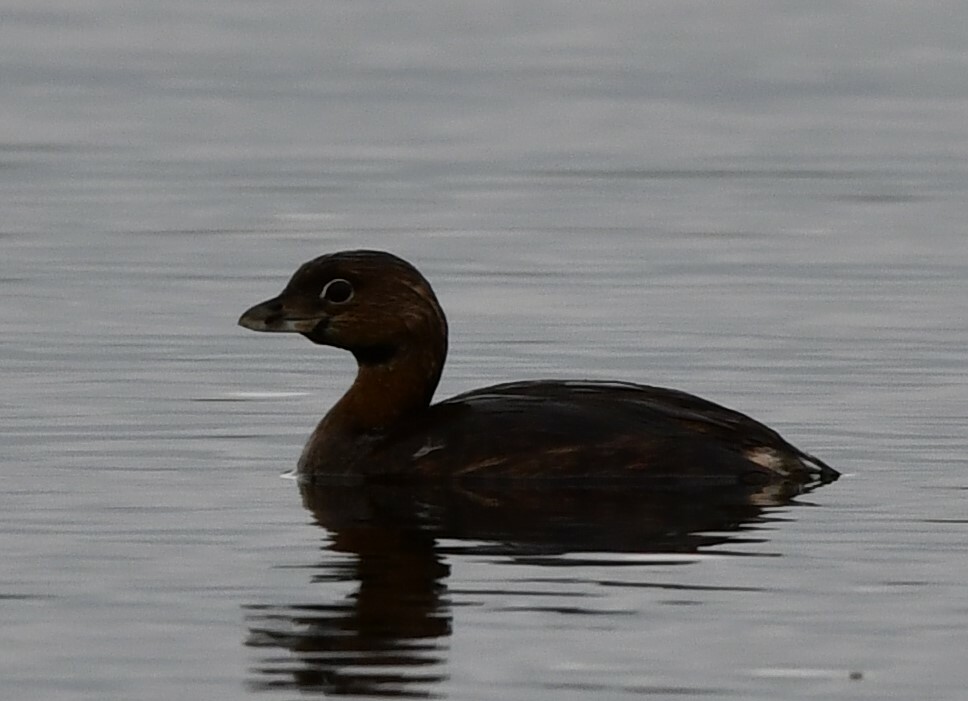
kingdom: Animalia
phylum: Chordata
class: Aves
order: Podicipediformes
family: Podicipedidae
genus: Podilymbus
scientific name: Podilymbus podiceps
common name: Pied-billed grebe
